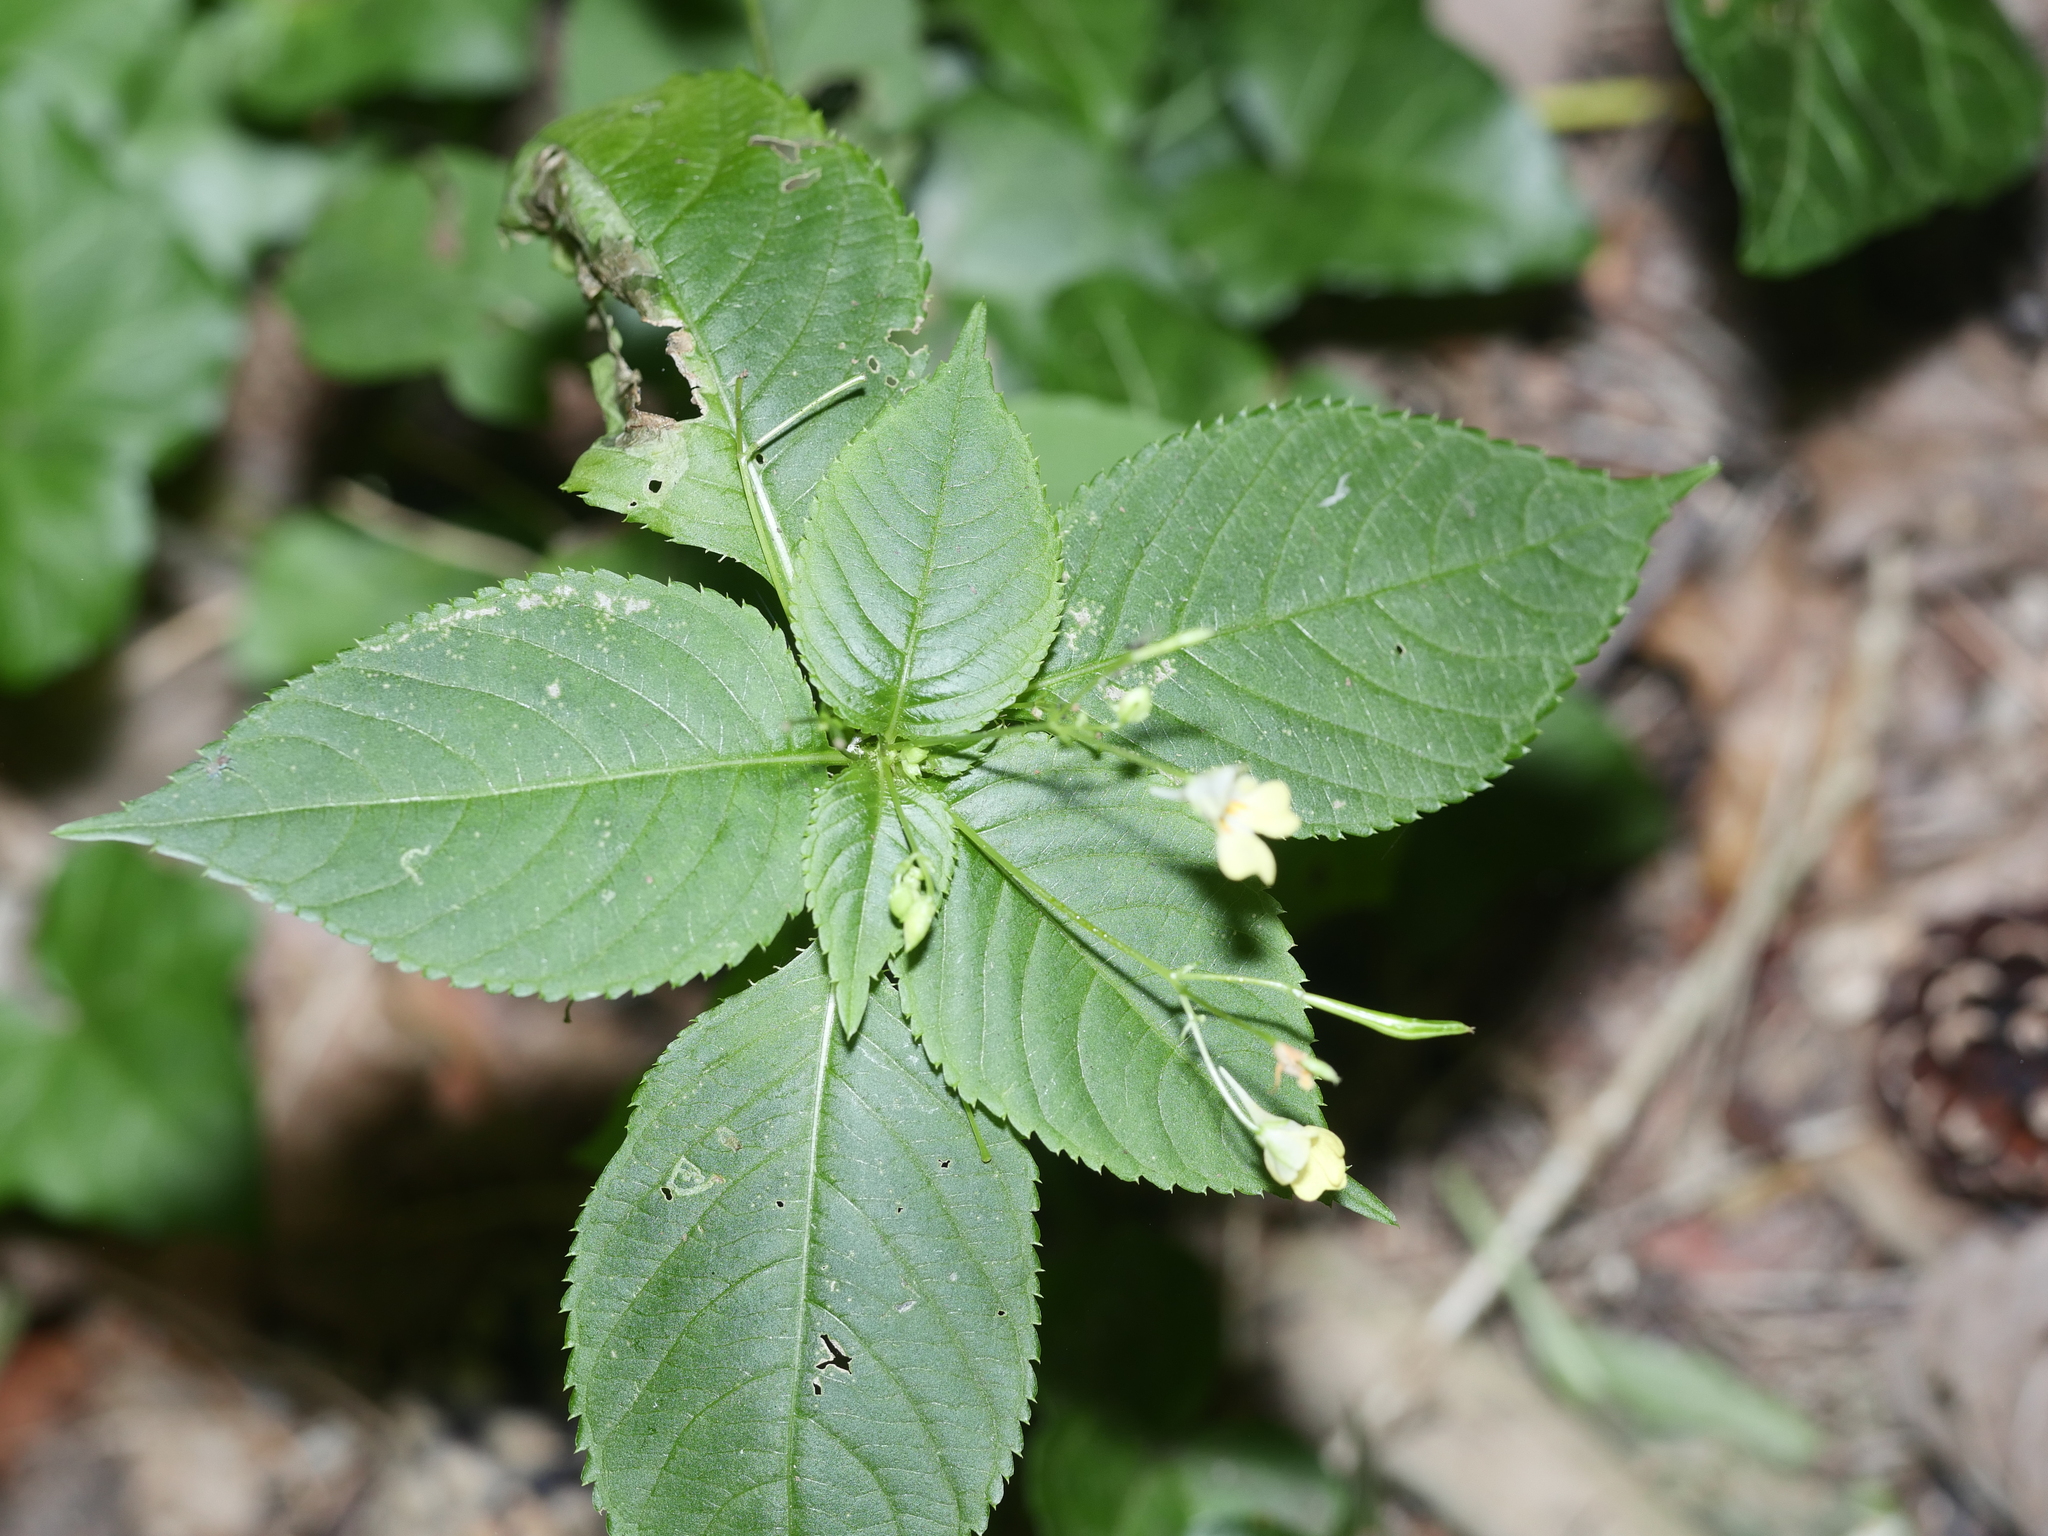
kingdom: Plantae
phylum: Tracheophyta
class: Magnoliopsida
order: Ericales
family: Balsaminaceae
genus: Impatiens
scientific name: Impatiens parviflora
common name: Small balsam
